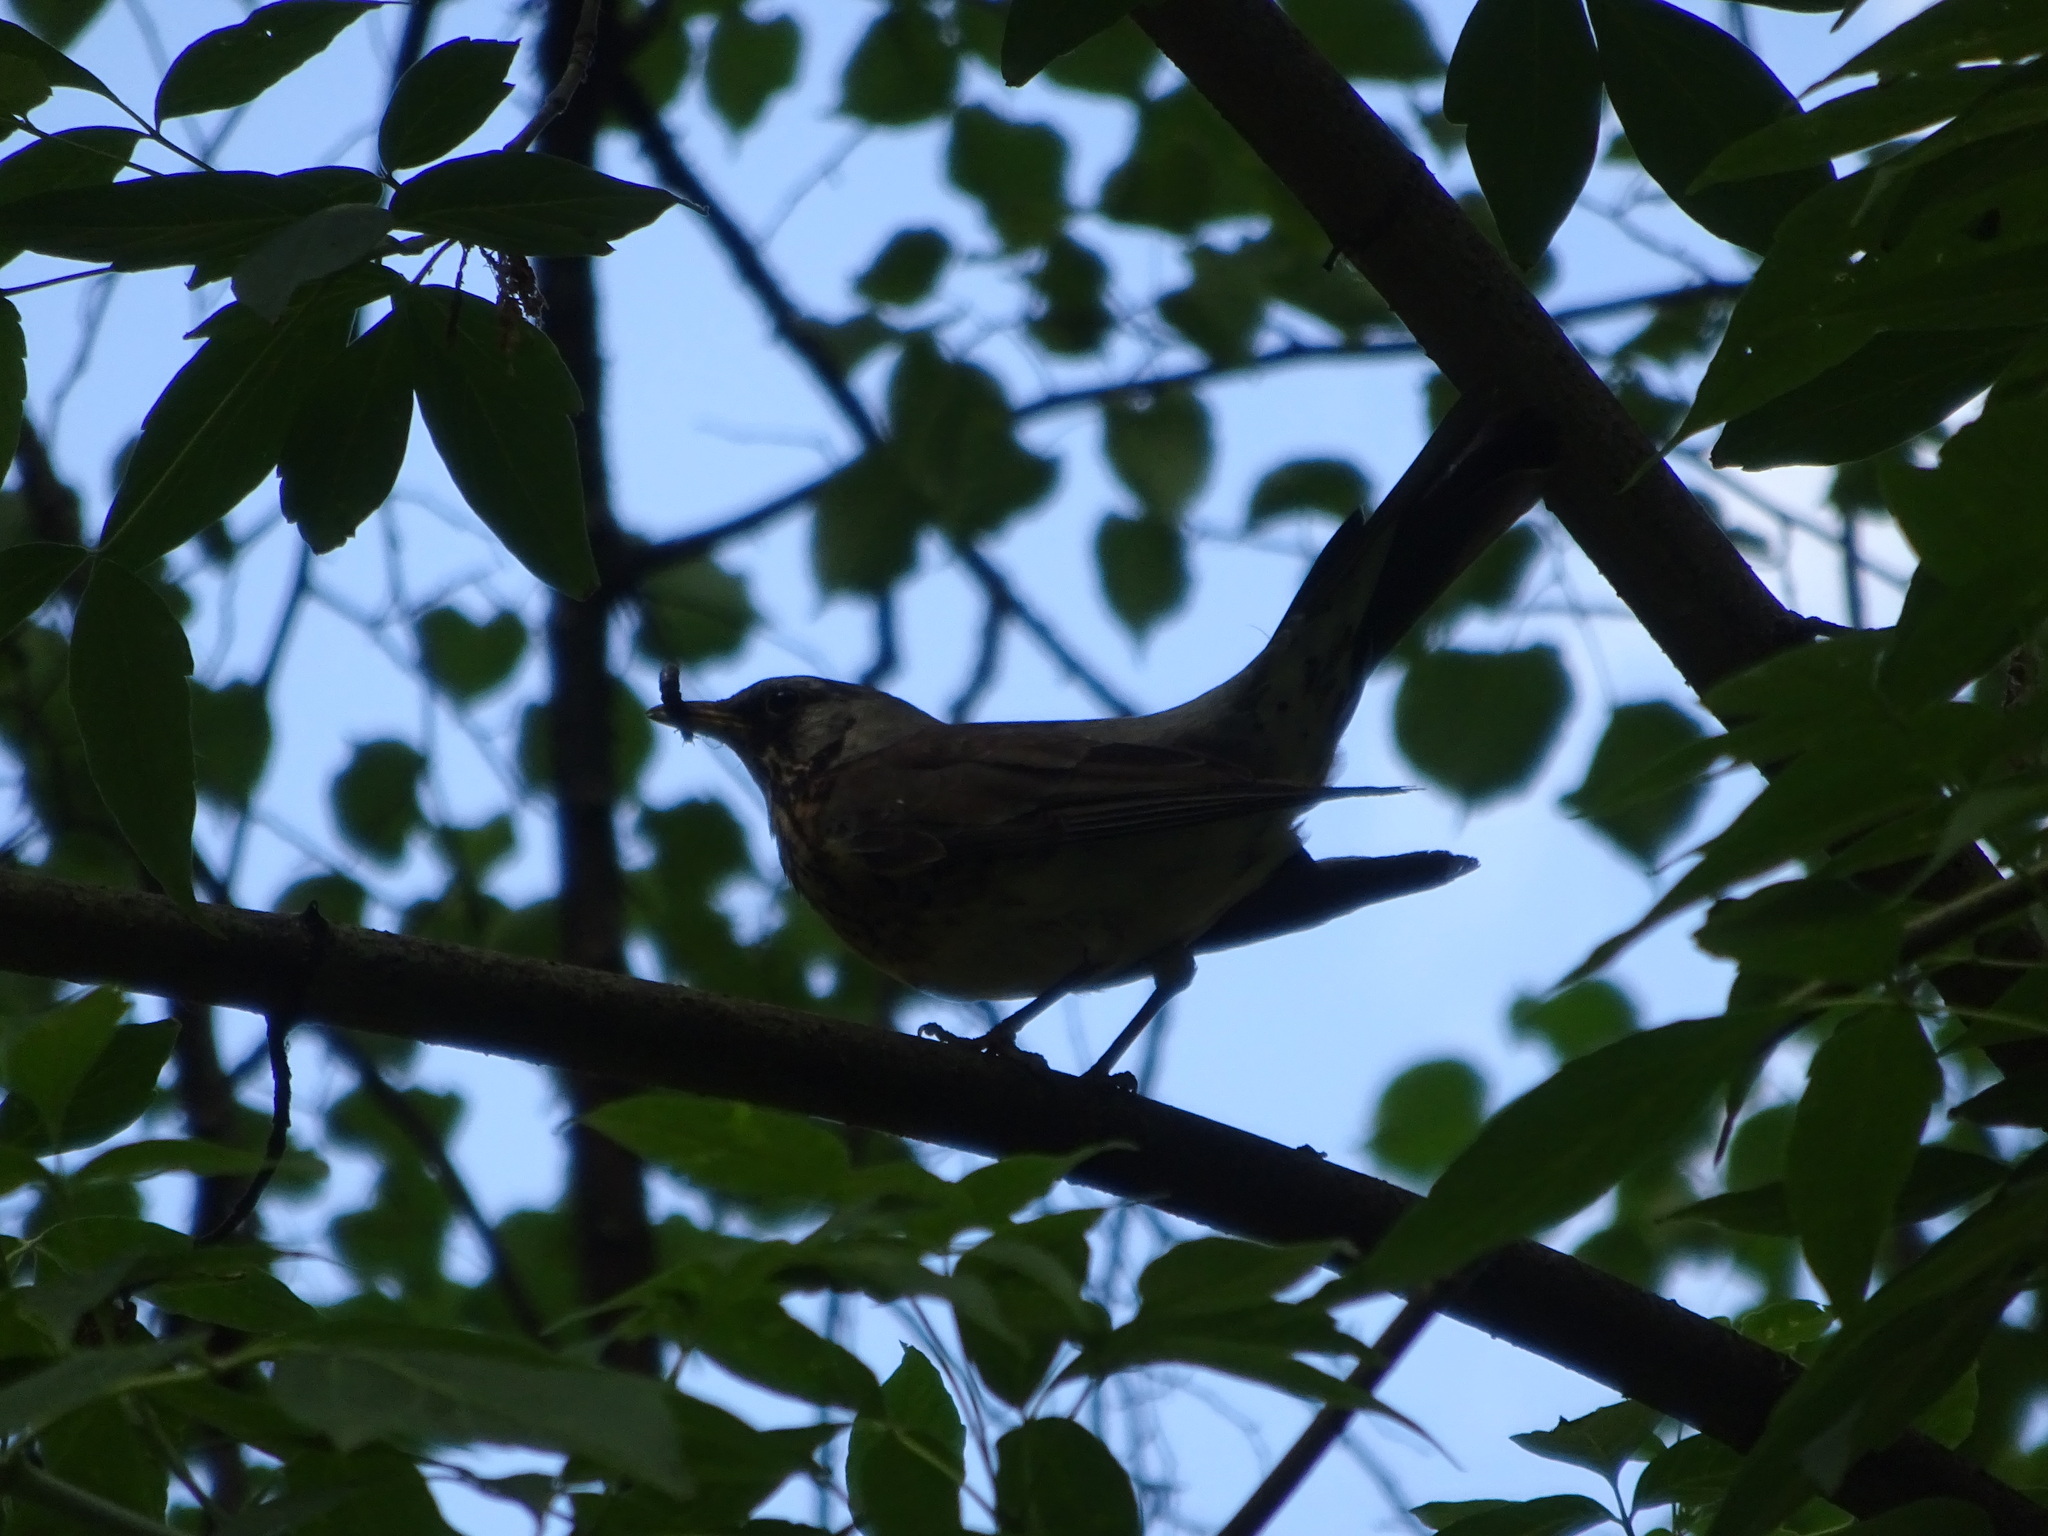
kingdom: Animalia
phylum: Chordata
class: Aves
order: Passeriformes
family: Turdidae
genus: Turdus
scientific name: Turdus pilaris
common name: Fieldfare
